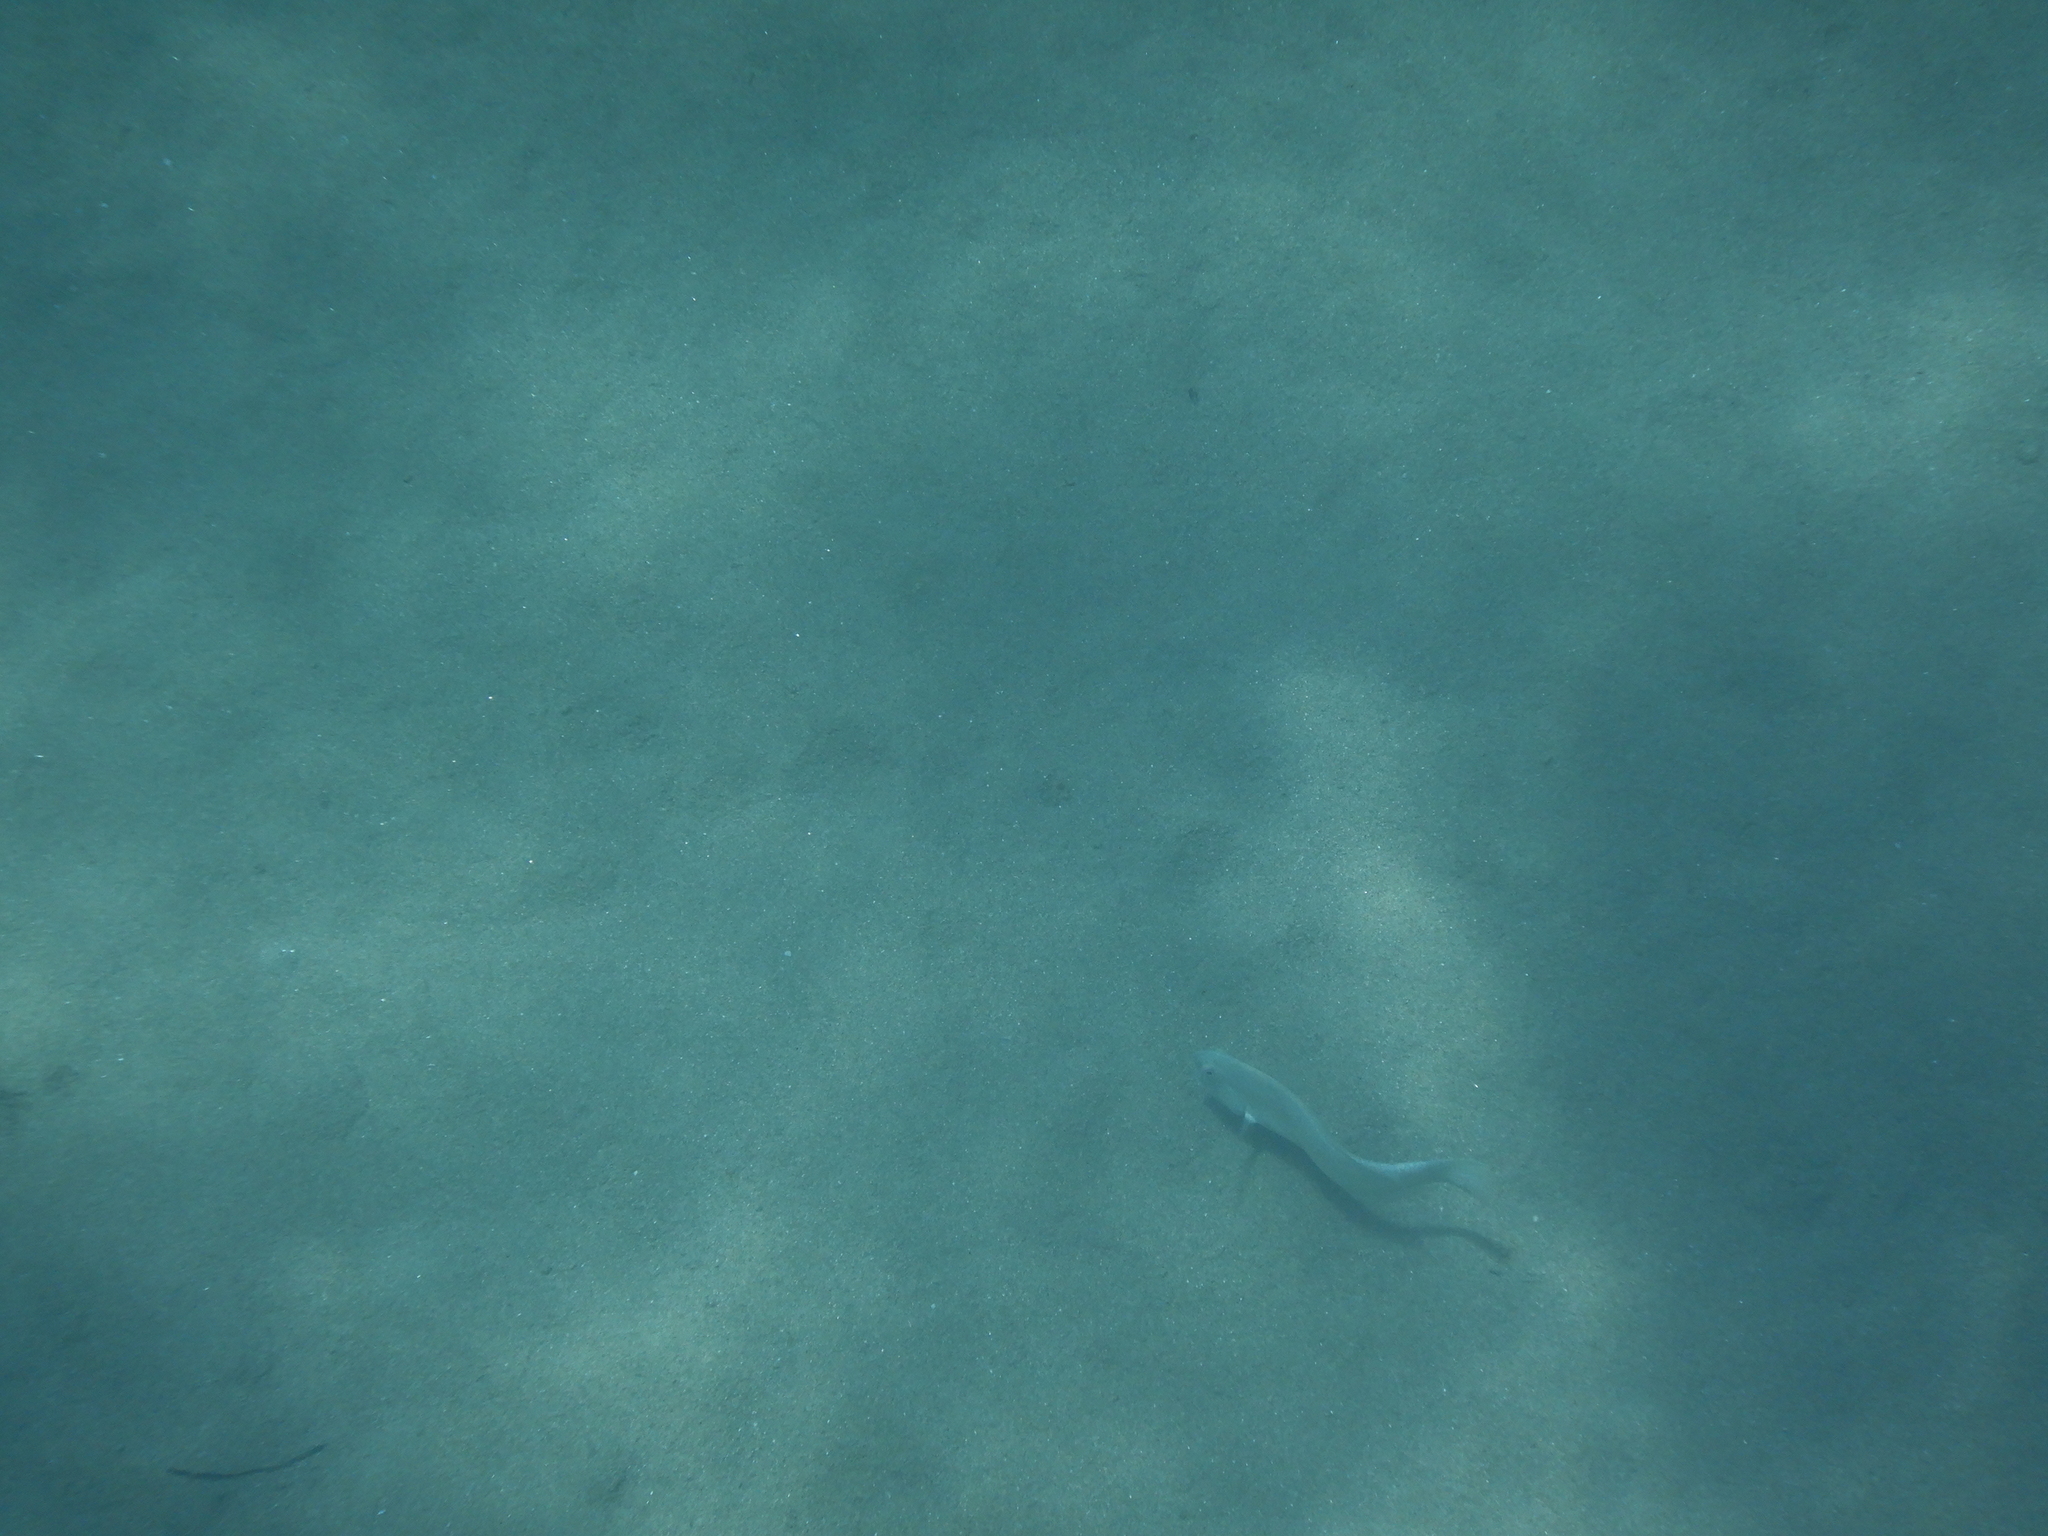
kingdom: Animalia
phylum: Chordata
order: Perciformes
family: Labridae
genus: Xyrichtys
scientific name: Xyrichtys novacula
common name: Pearly razorfish
